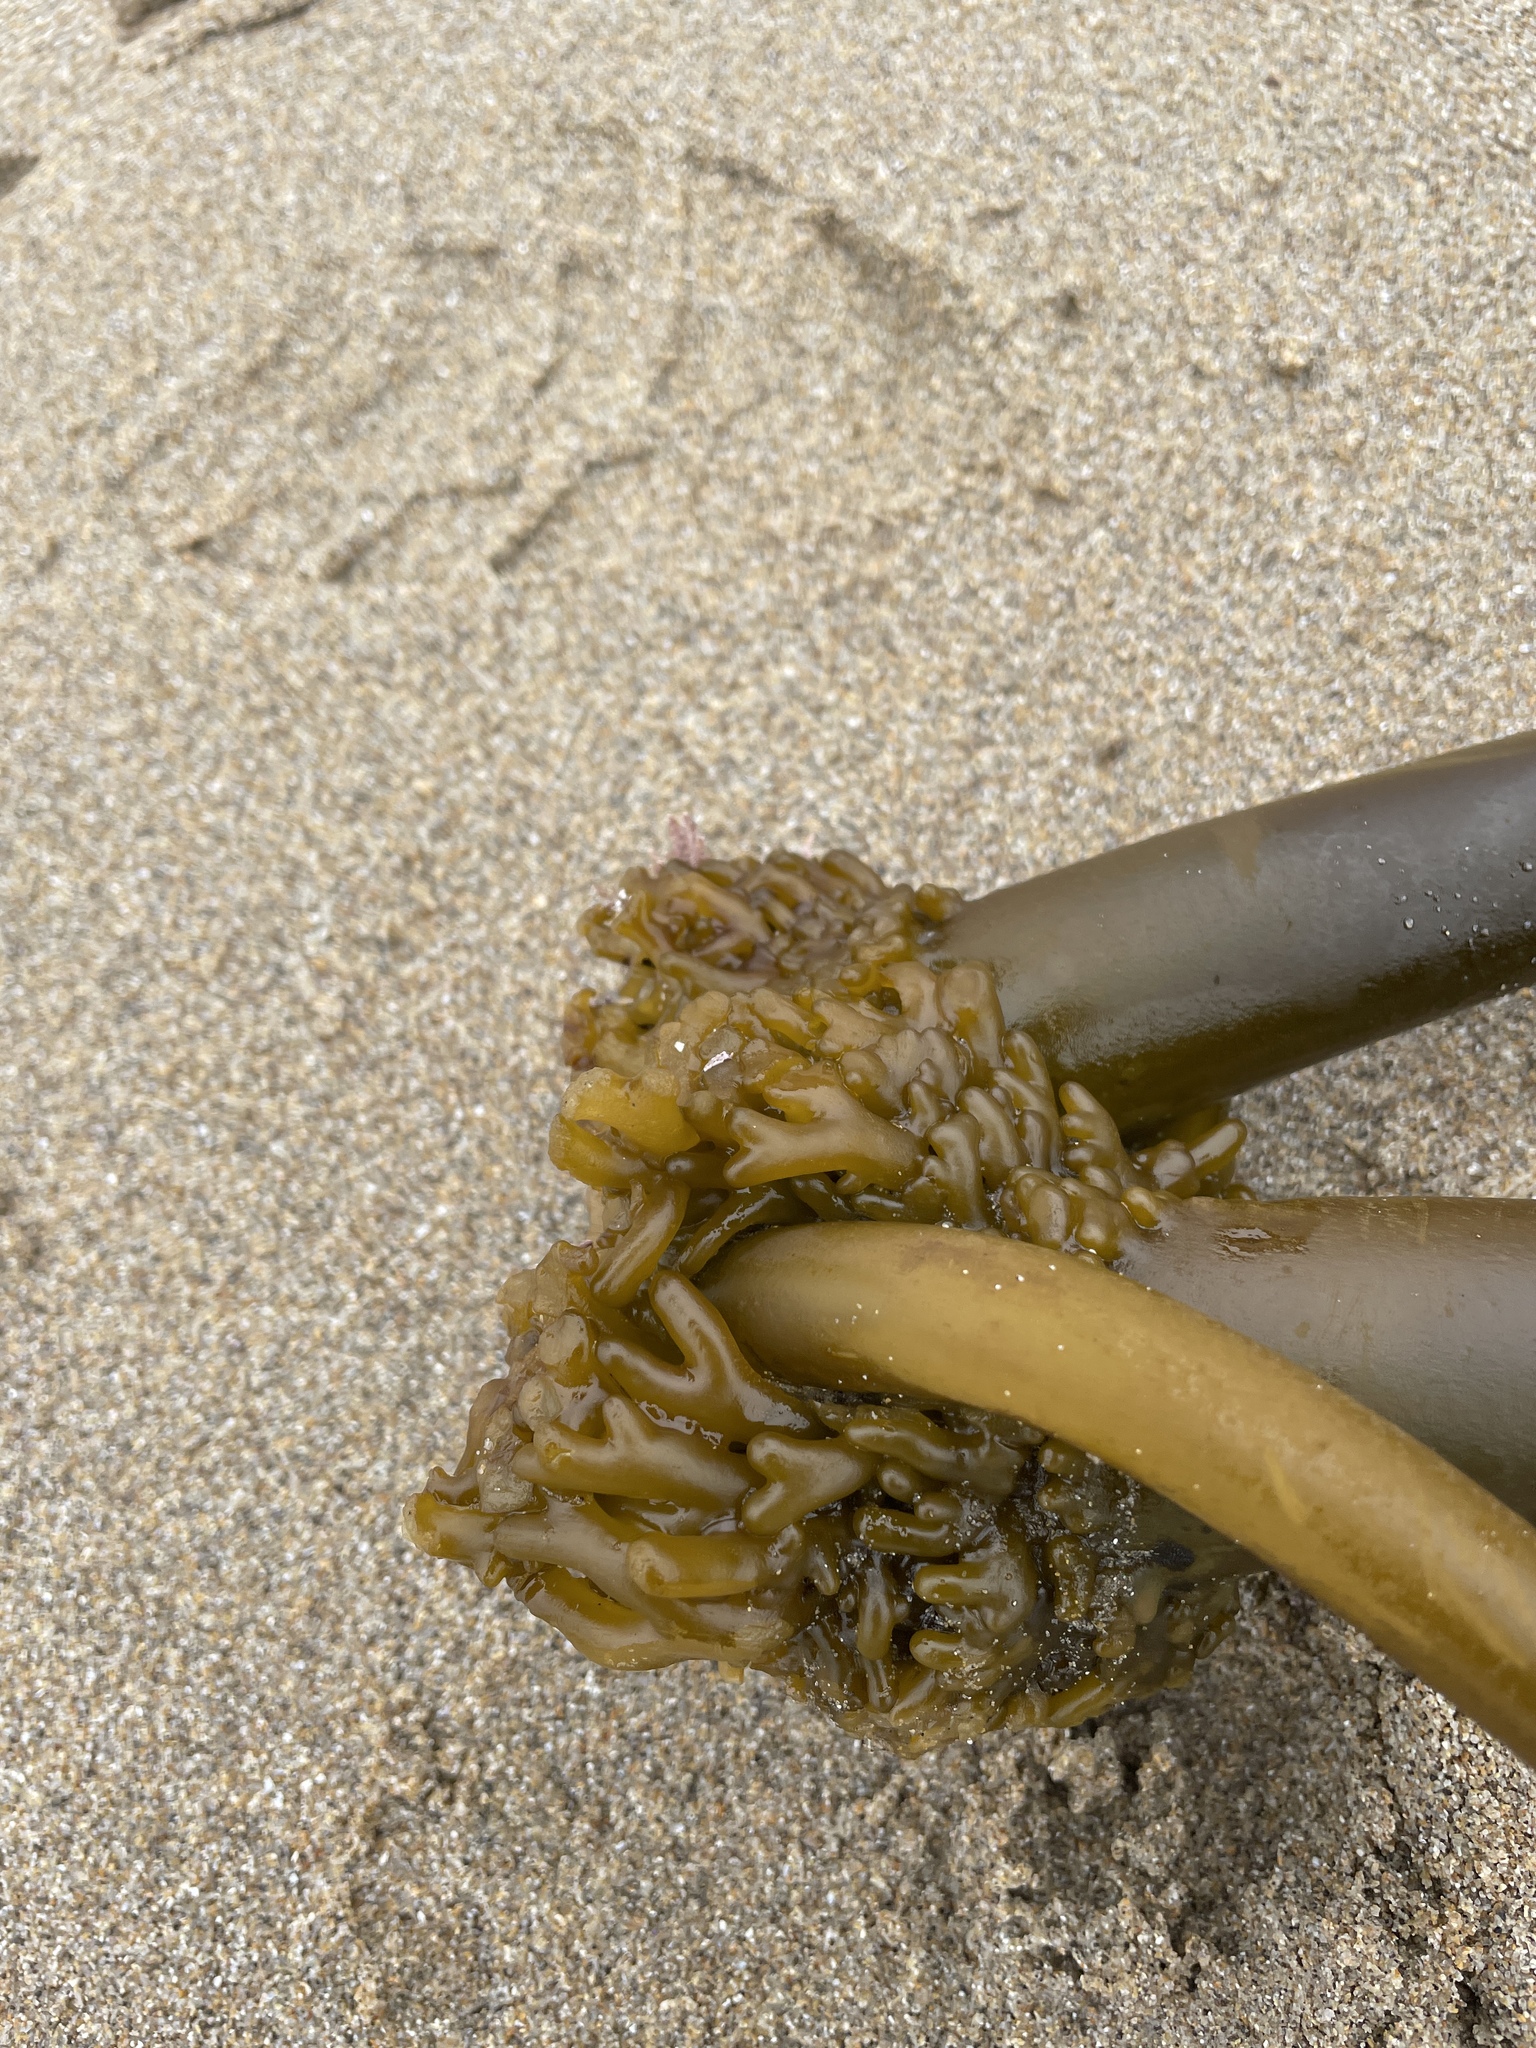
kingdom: Chromista
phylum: Ochrophyta
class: Phaeophyceae
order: Laminariales
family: Laminariaceae
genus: Postelsia
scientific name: Postelsia palmiformis
